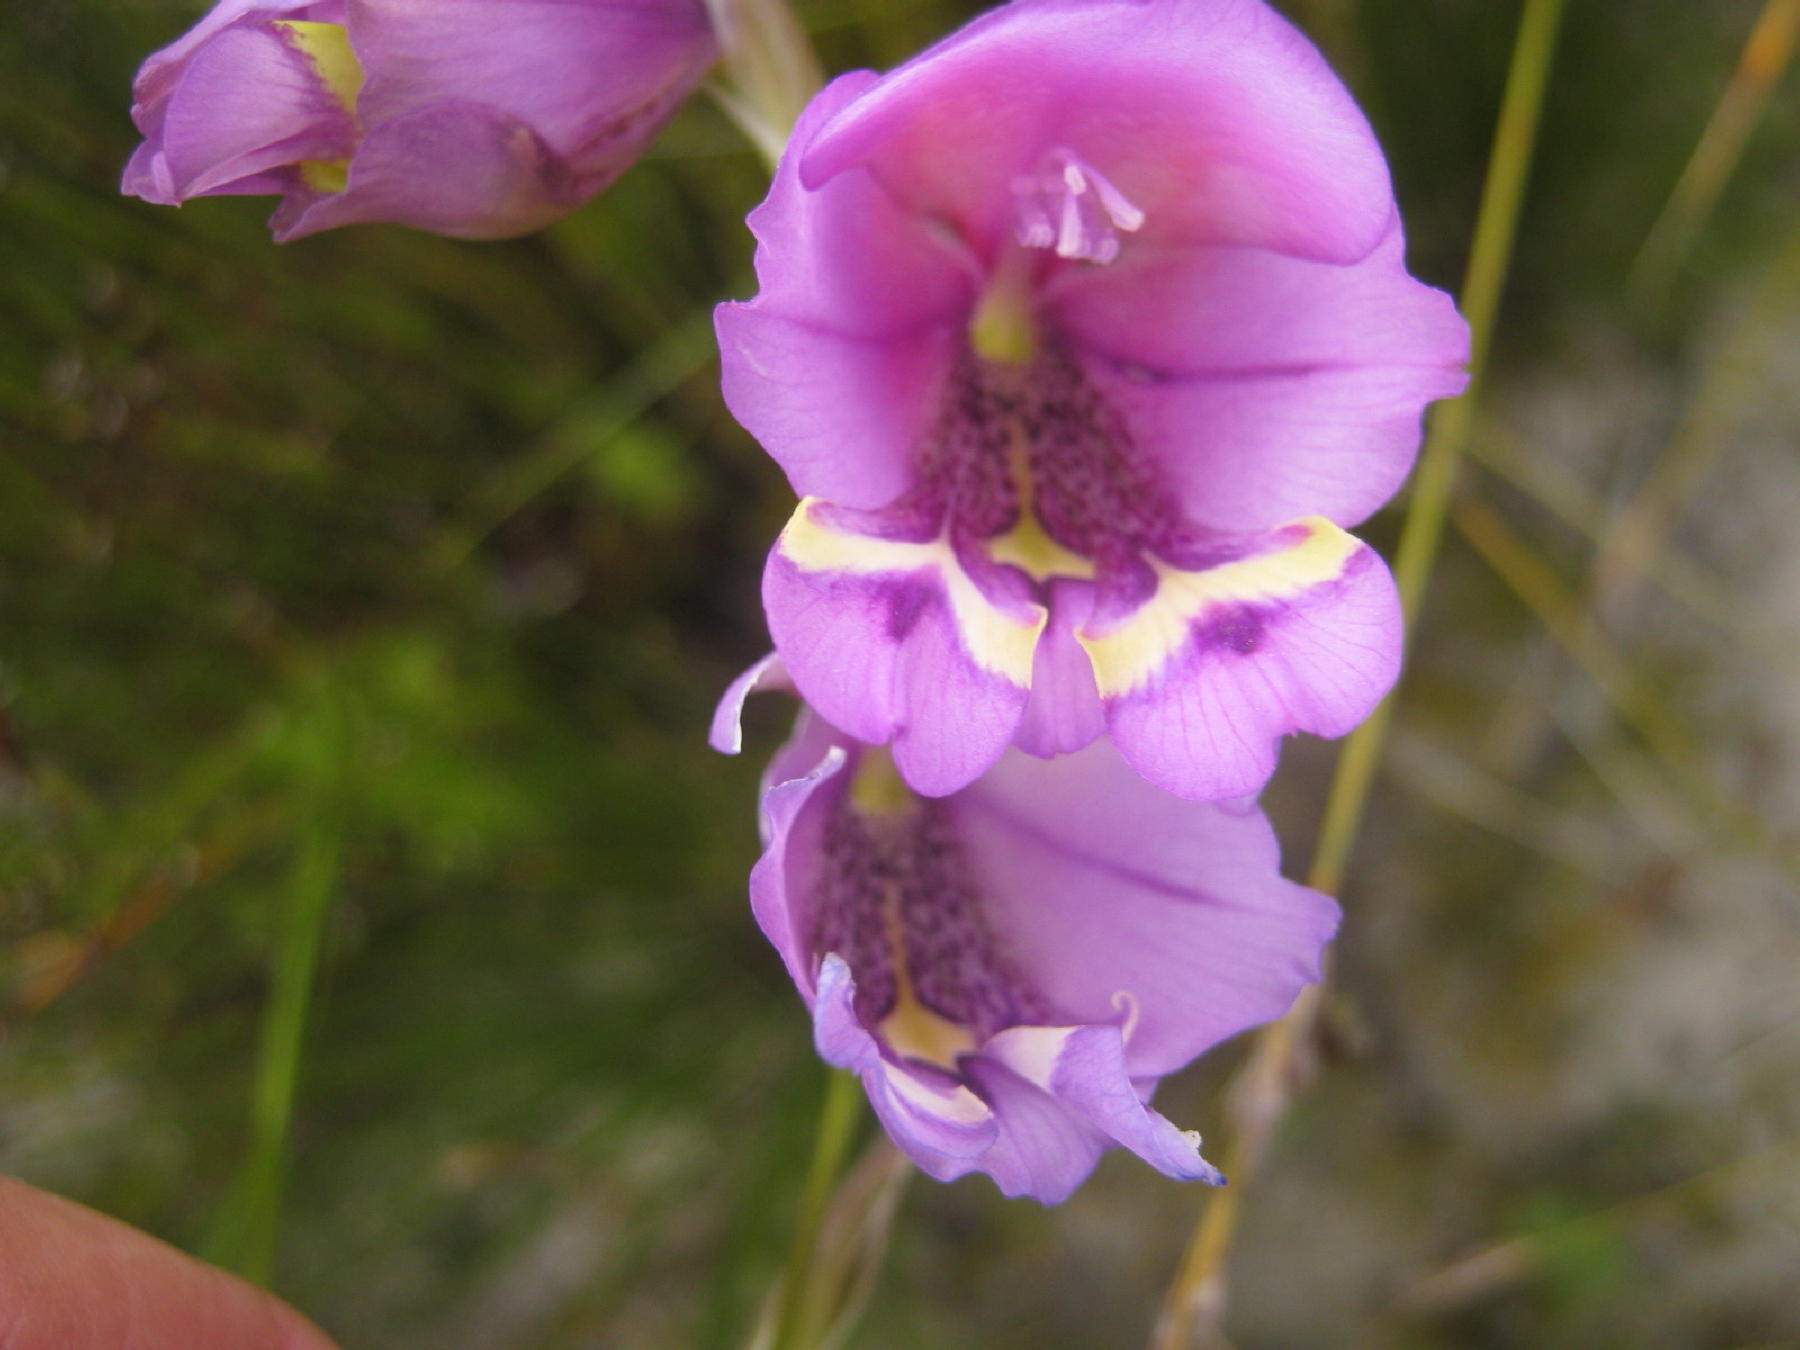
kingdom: Plantae
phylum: Tracheophyta
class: Liliopsida
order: Asparagales
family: Iridaceae
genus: Gladiolus
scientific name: Gladiolus rogersii
